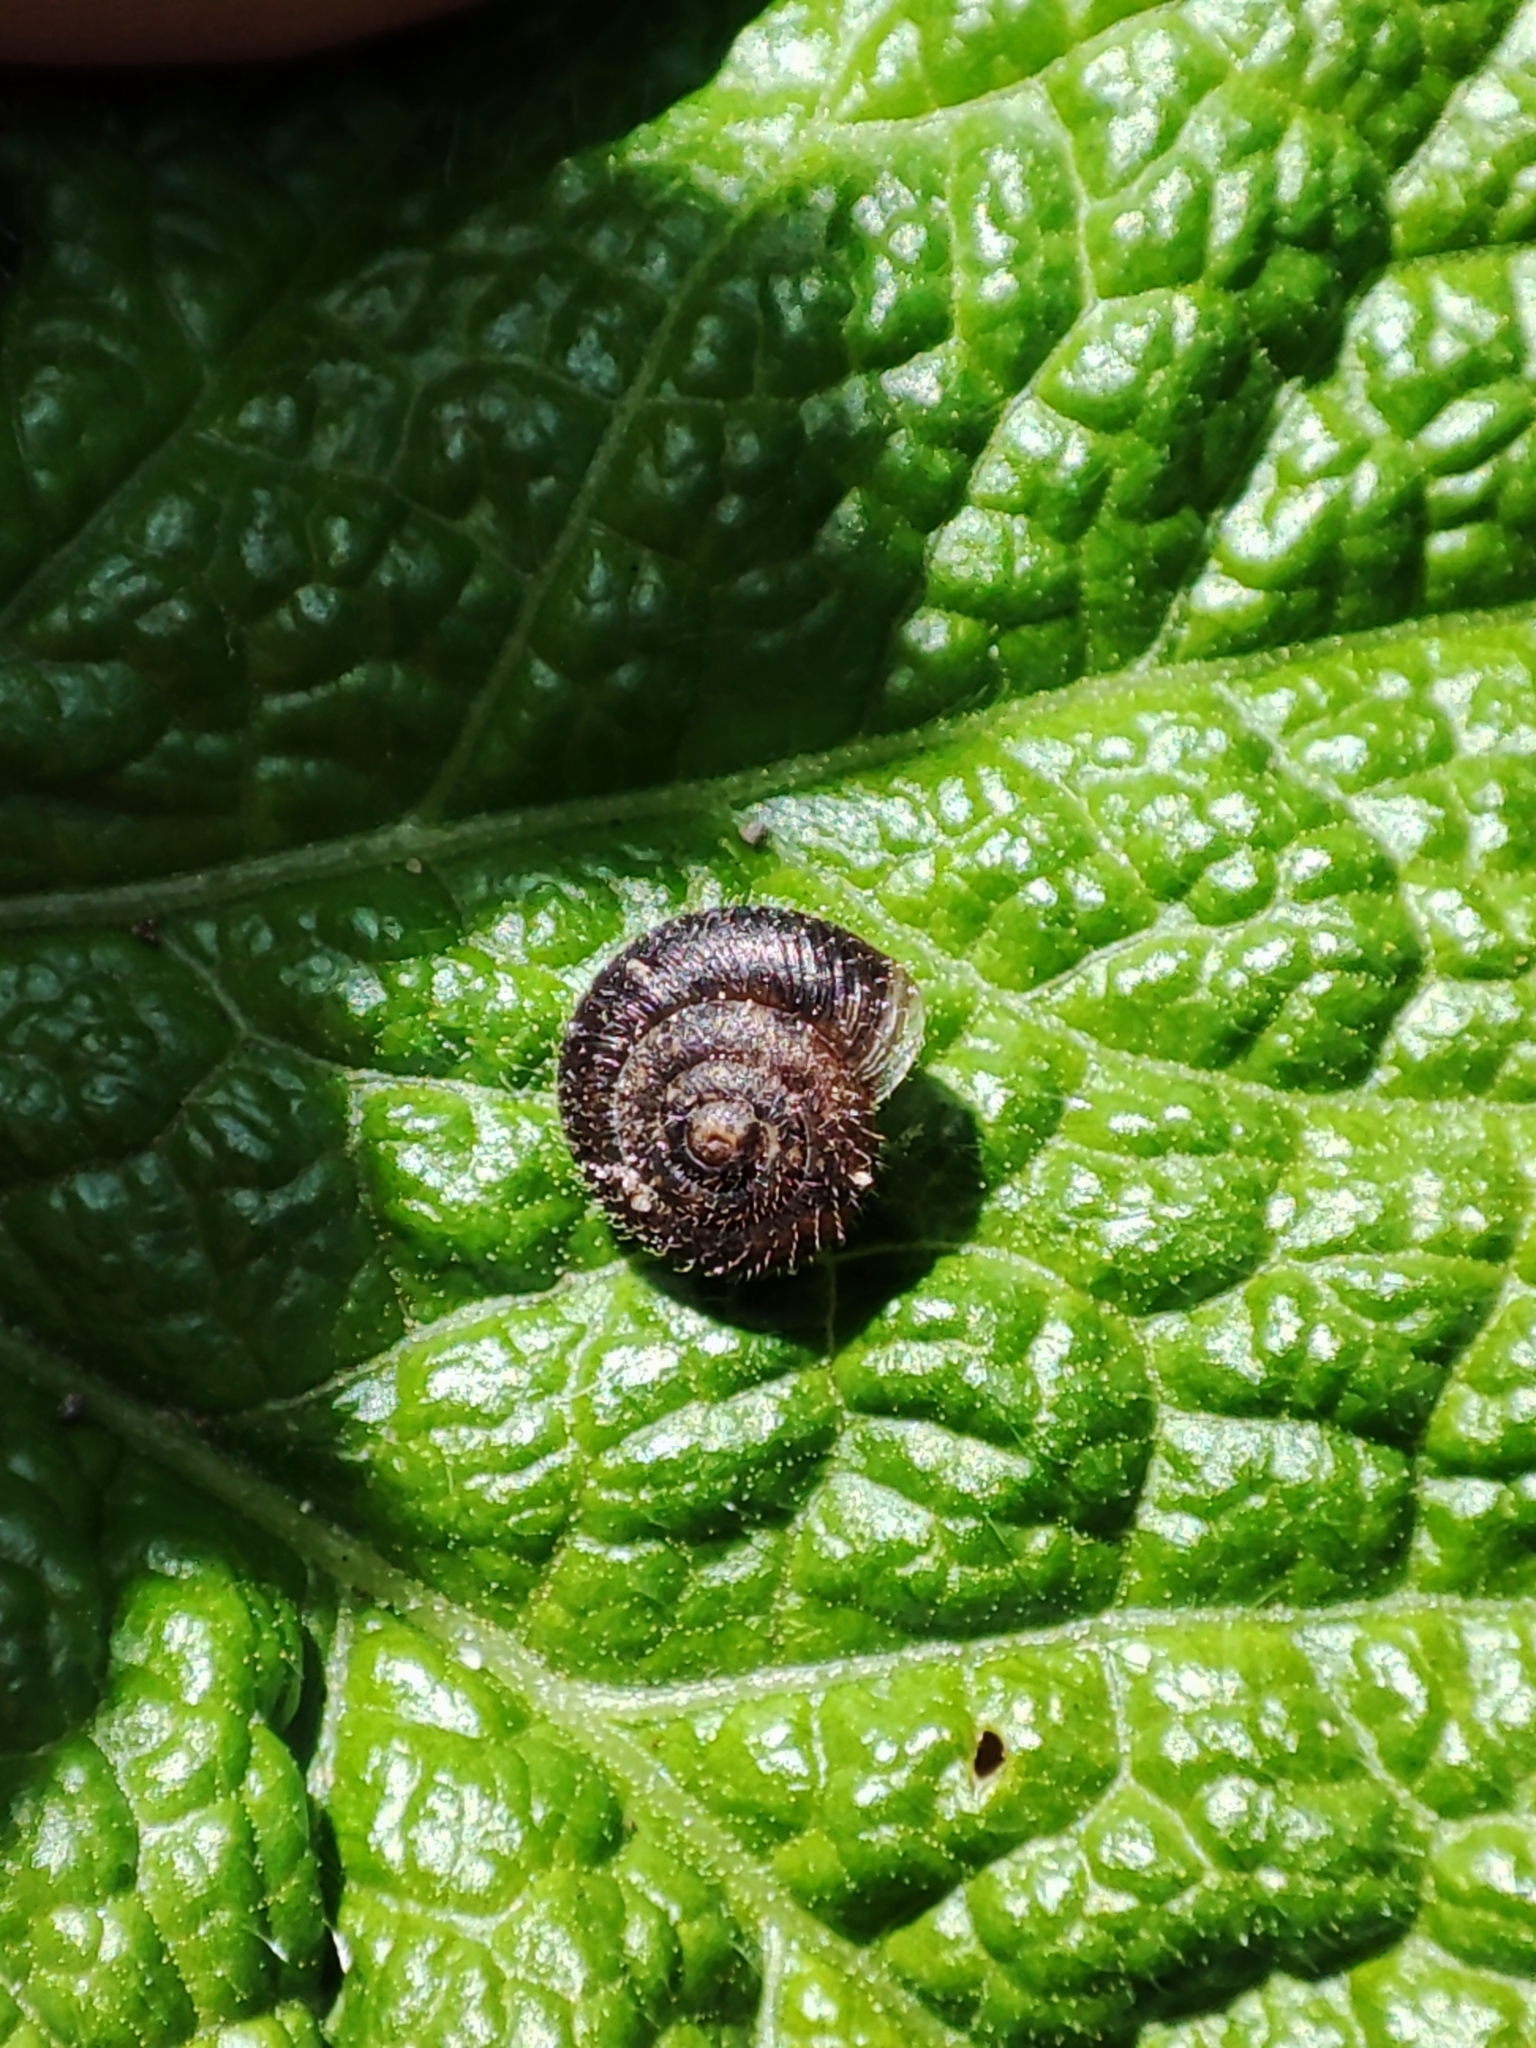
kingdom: Animalia
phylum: Mollusca
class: Gastropoda
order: Stylommatophora
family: Hygromiidae
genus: Trochulus
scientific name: Trochulus hispidus
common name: Hairy snail
